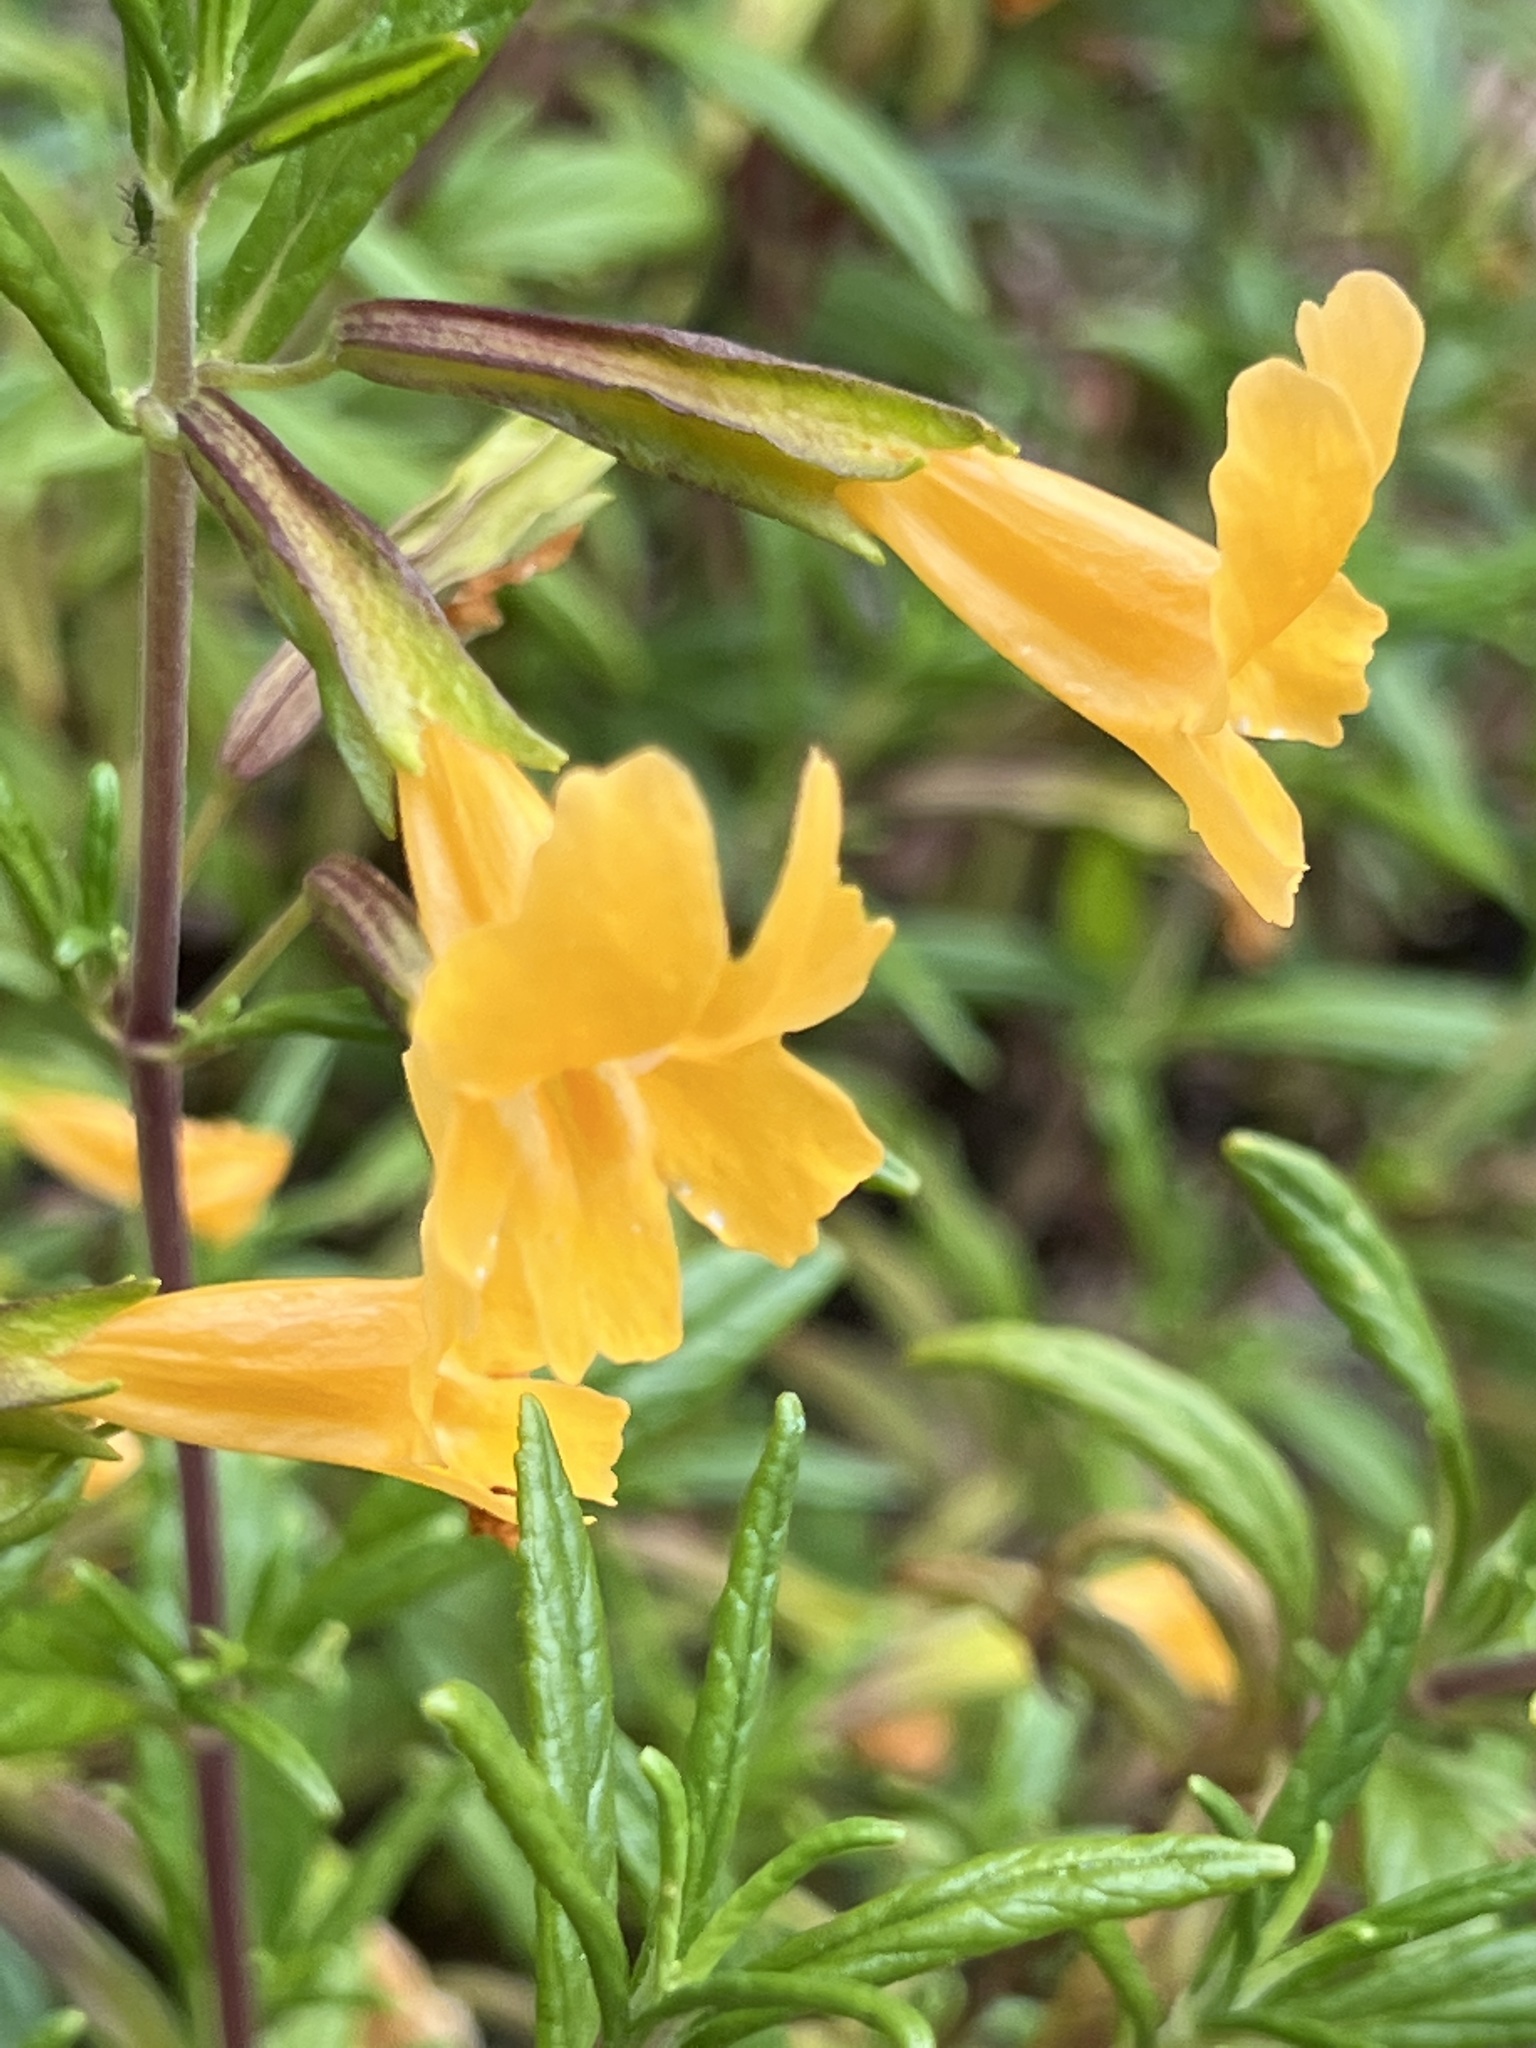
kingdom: Plantae
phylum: Tracheophyta
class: Magnoliopsida
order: Lamiales
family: Phrymaceae
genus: Diplacus
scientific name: Diplacus aurantiacus
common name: Bush monkey-flower
